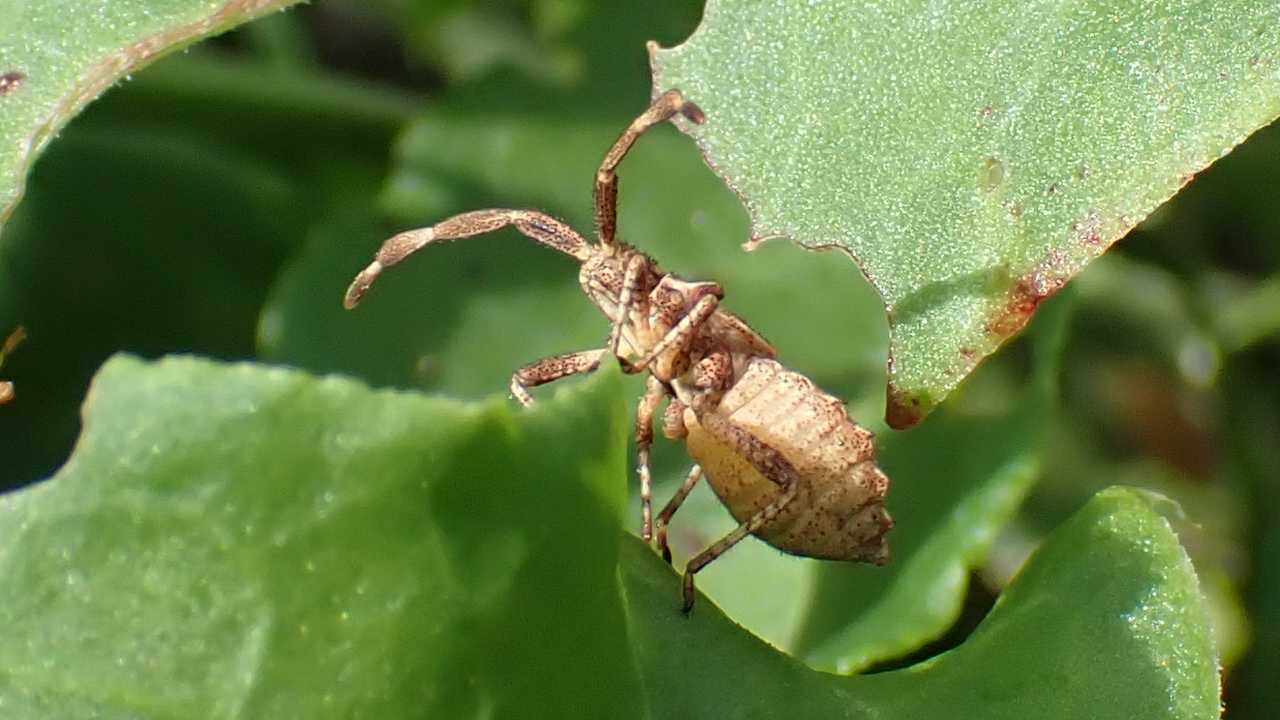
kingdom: Animalia
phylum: Arthropoda
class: Insecta
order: Hemiptera
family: Coreidae
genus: Coreus
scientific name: Coreus marginatus
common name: Dock bug
